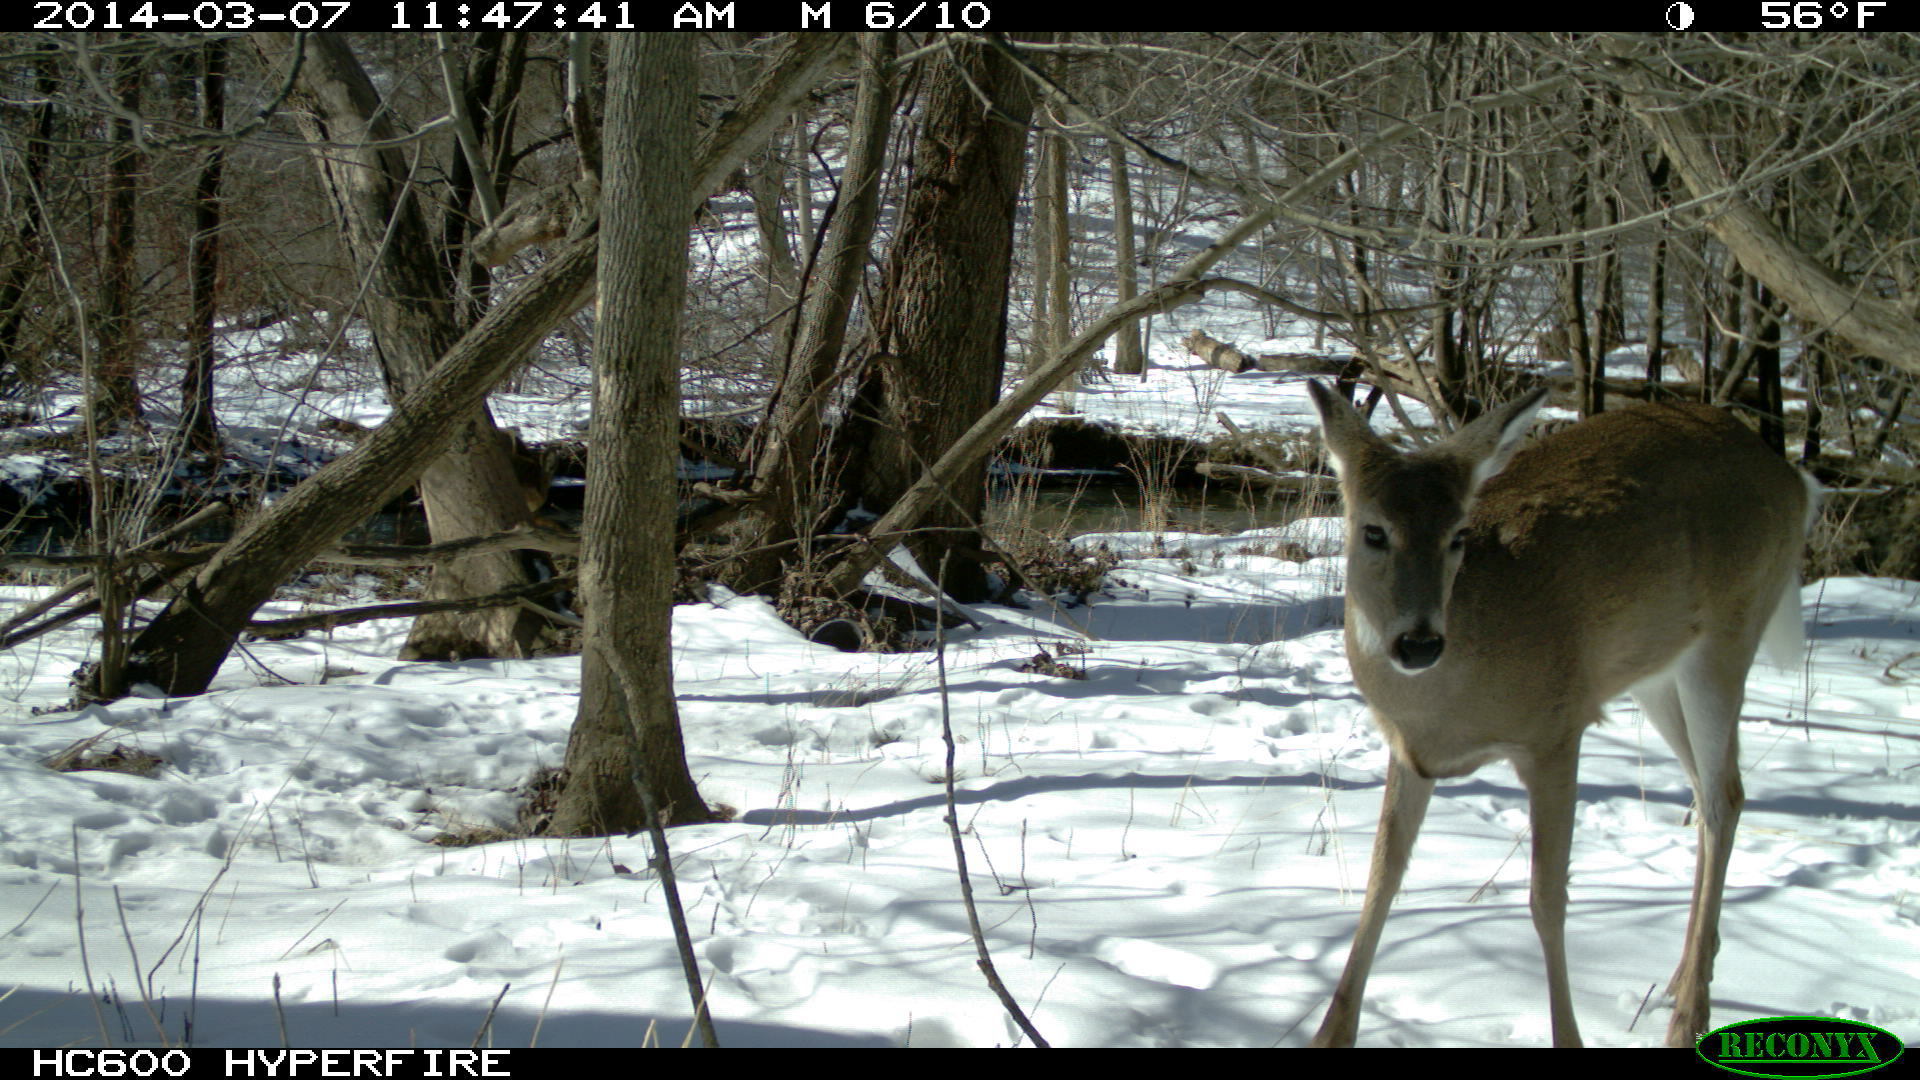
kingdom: Animalia
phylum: Chordata
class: Mammalia
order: Artiodactyla
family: Cervidae
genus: Odocoileus
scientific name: Odocoileus virginianus
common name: White-tailed deer
